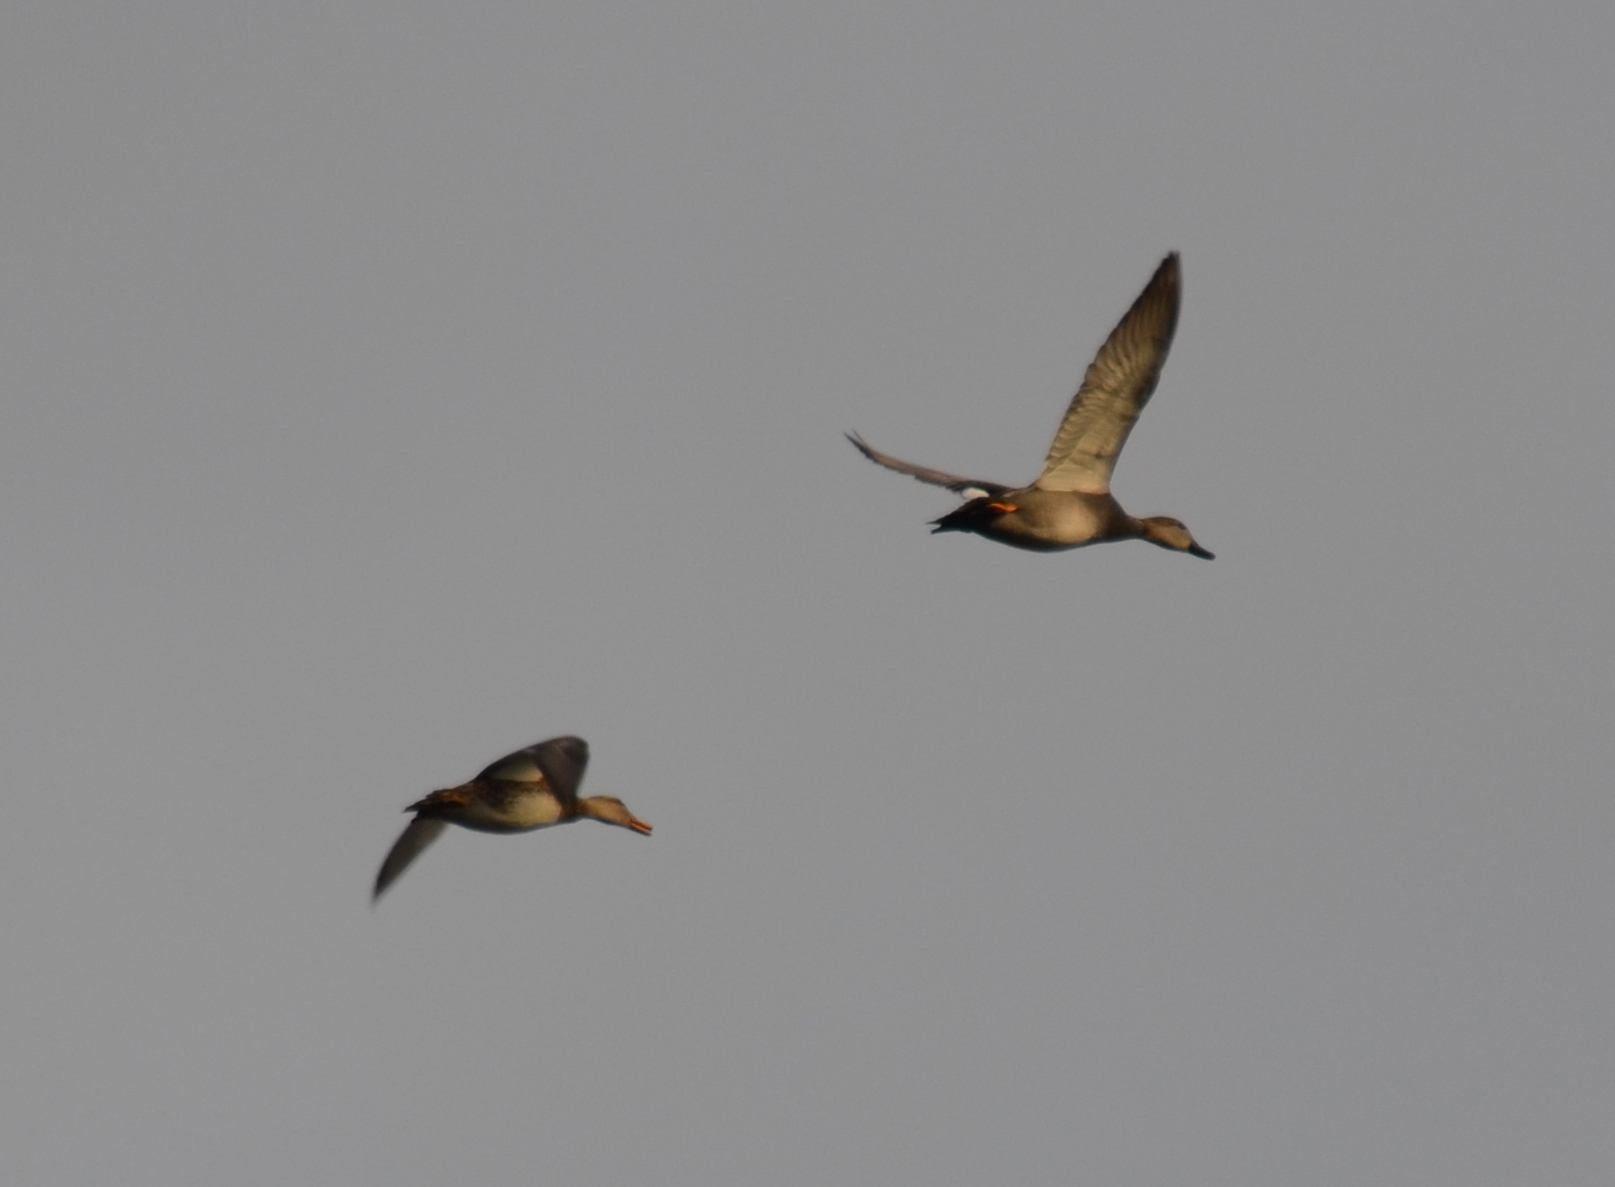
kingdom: Animalia
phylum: Chordata
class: Aves
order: Anseriformes
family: Anatidae
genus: Mareca
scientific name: Mareca strepera
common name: Gadwall
